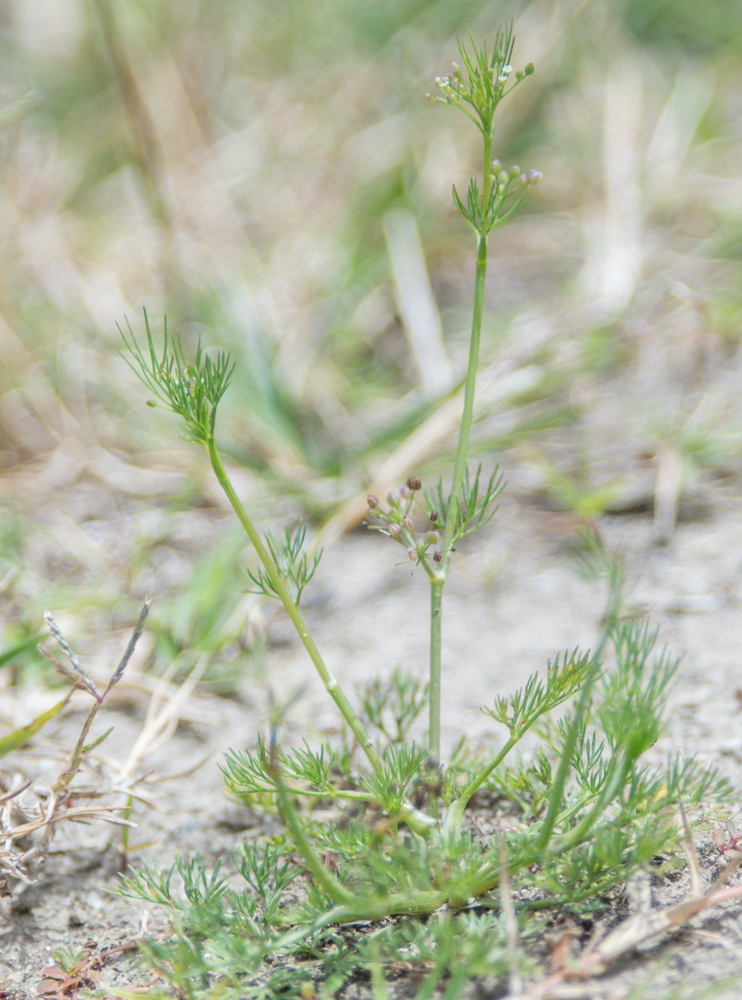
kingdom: Plantae
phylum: Tracheophyta
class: Magnoliopsida
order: Apiales
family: Apiaceae
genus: Cyclospermum
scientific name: Cyclospermum leptophyllum
